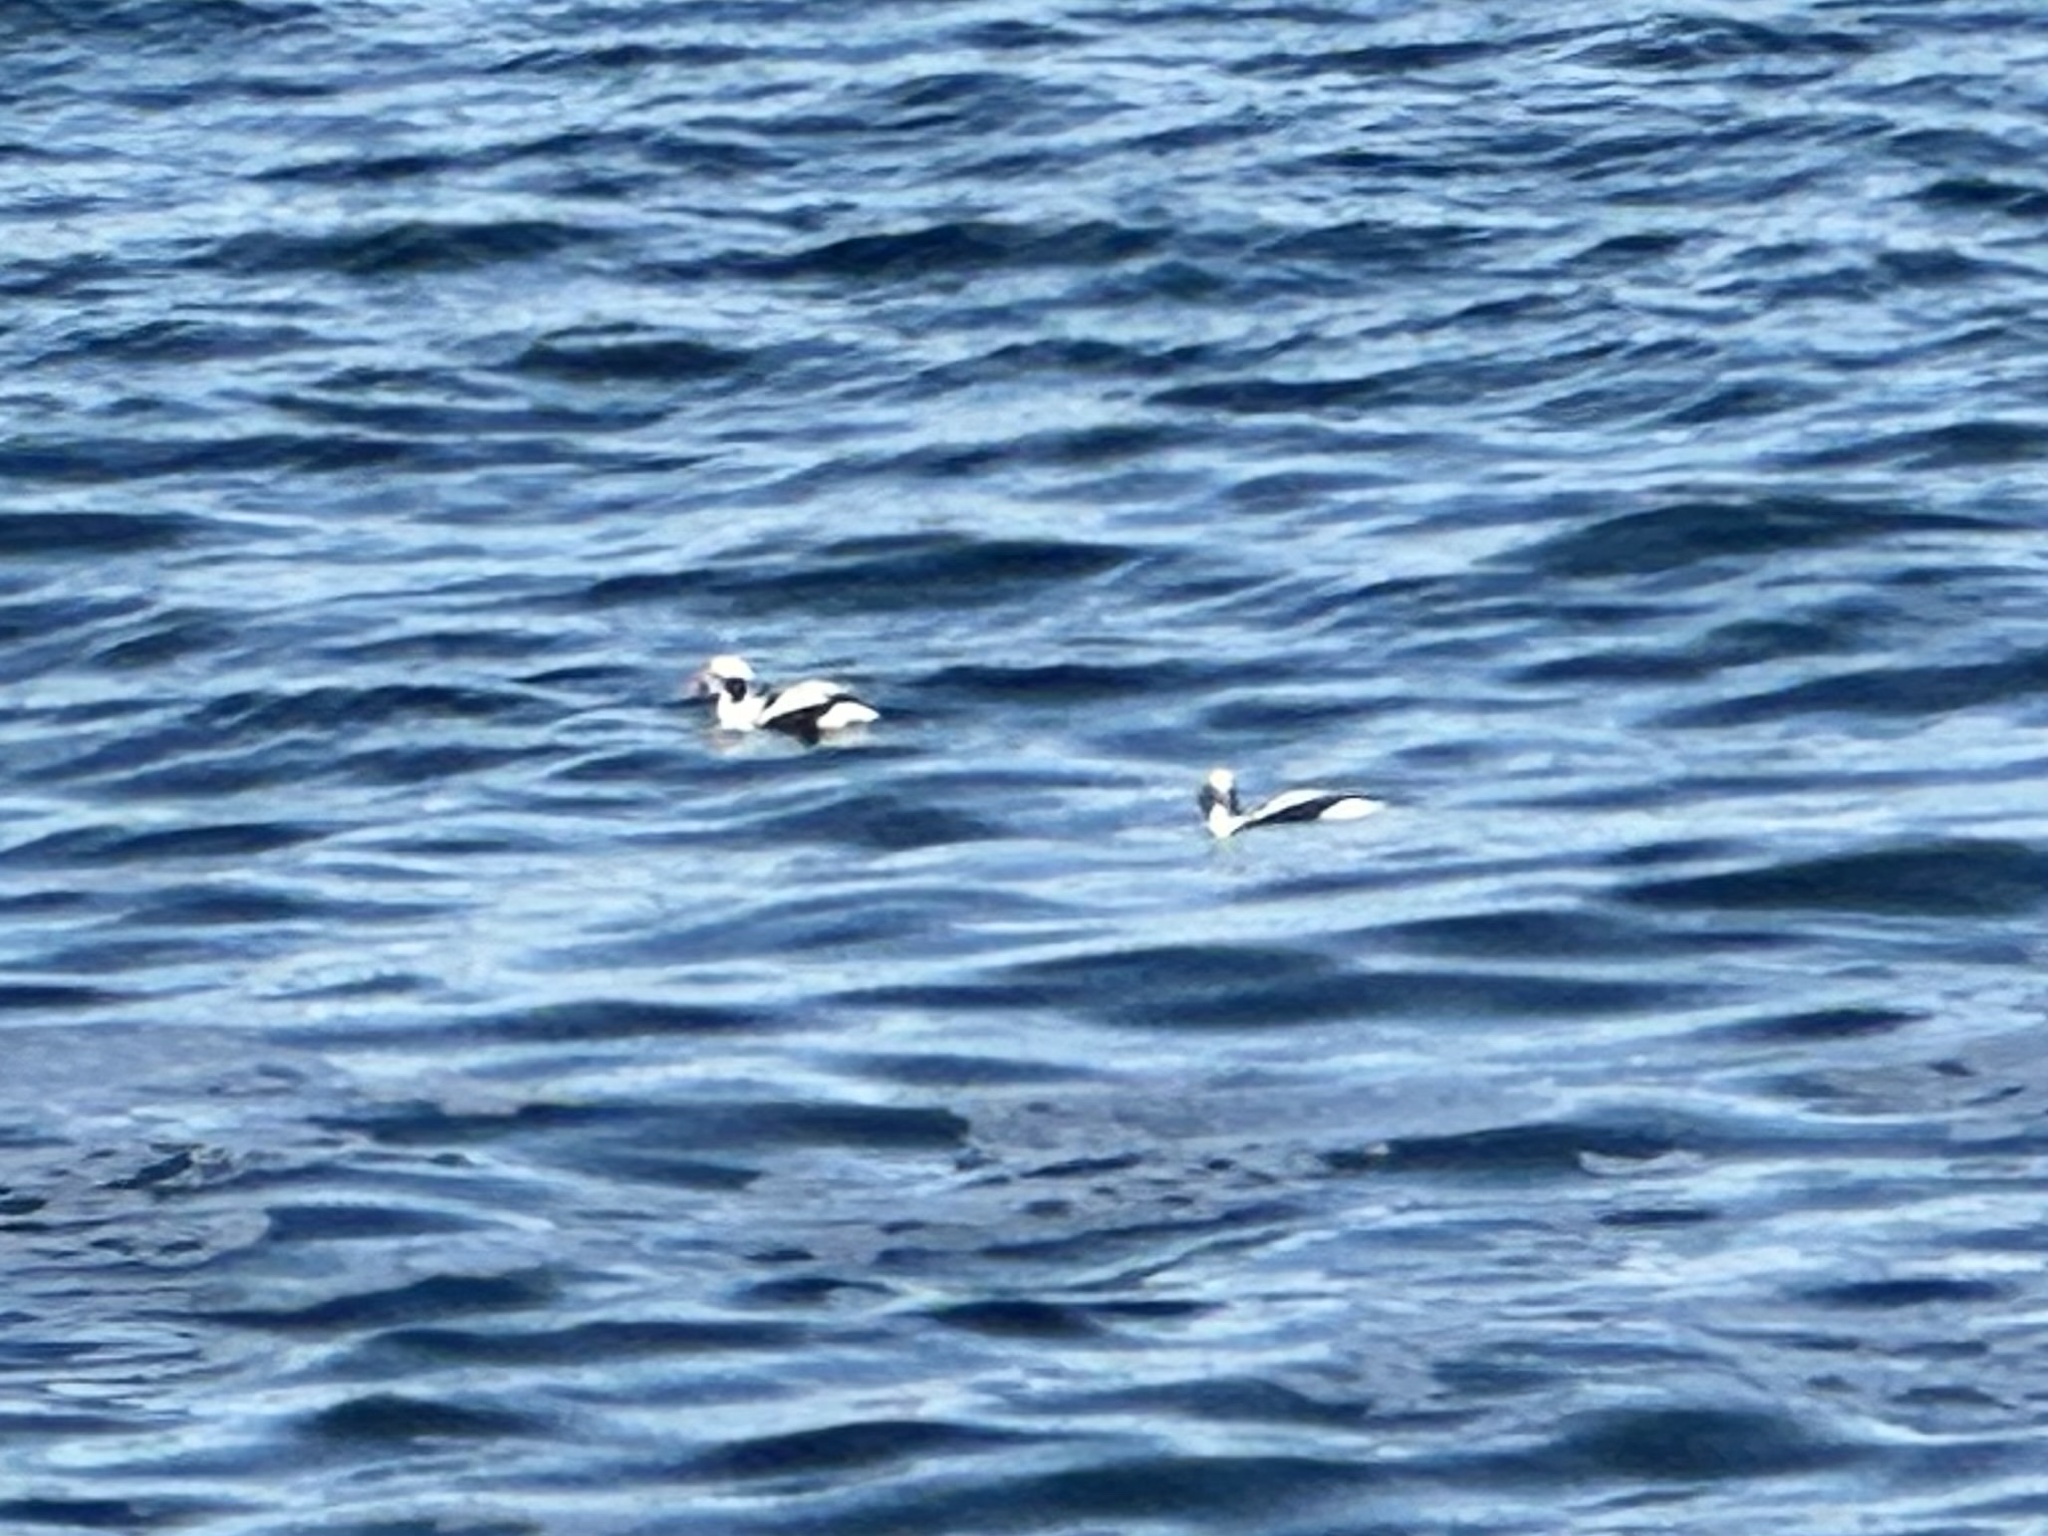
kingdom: Animalia
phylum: Chordata
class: Aves
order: Anseriformes
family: Anatidae
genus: Clangula
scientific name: Clangula hyemalis
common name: Long-tailed duck
